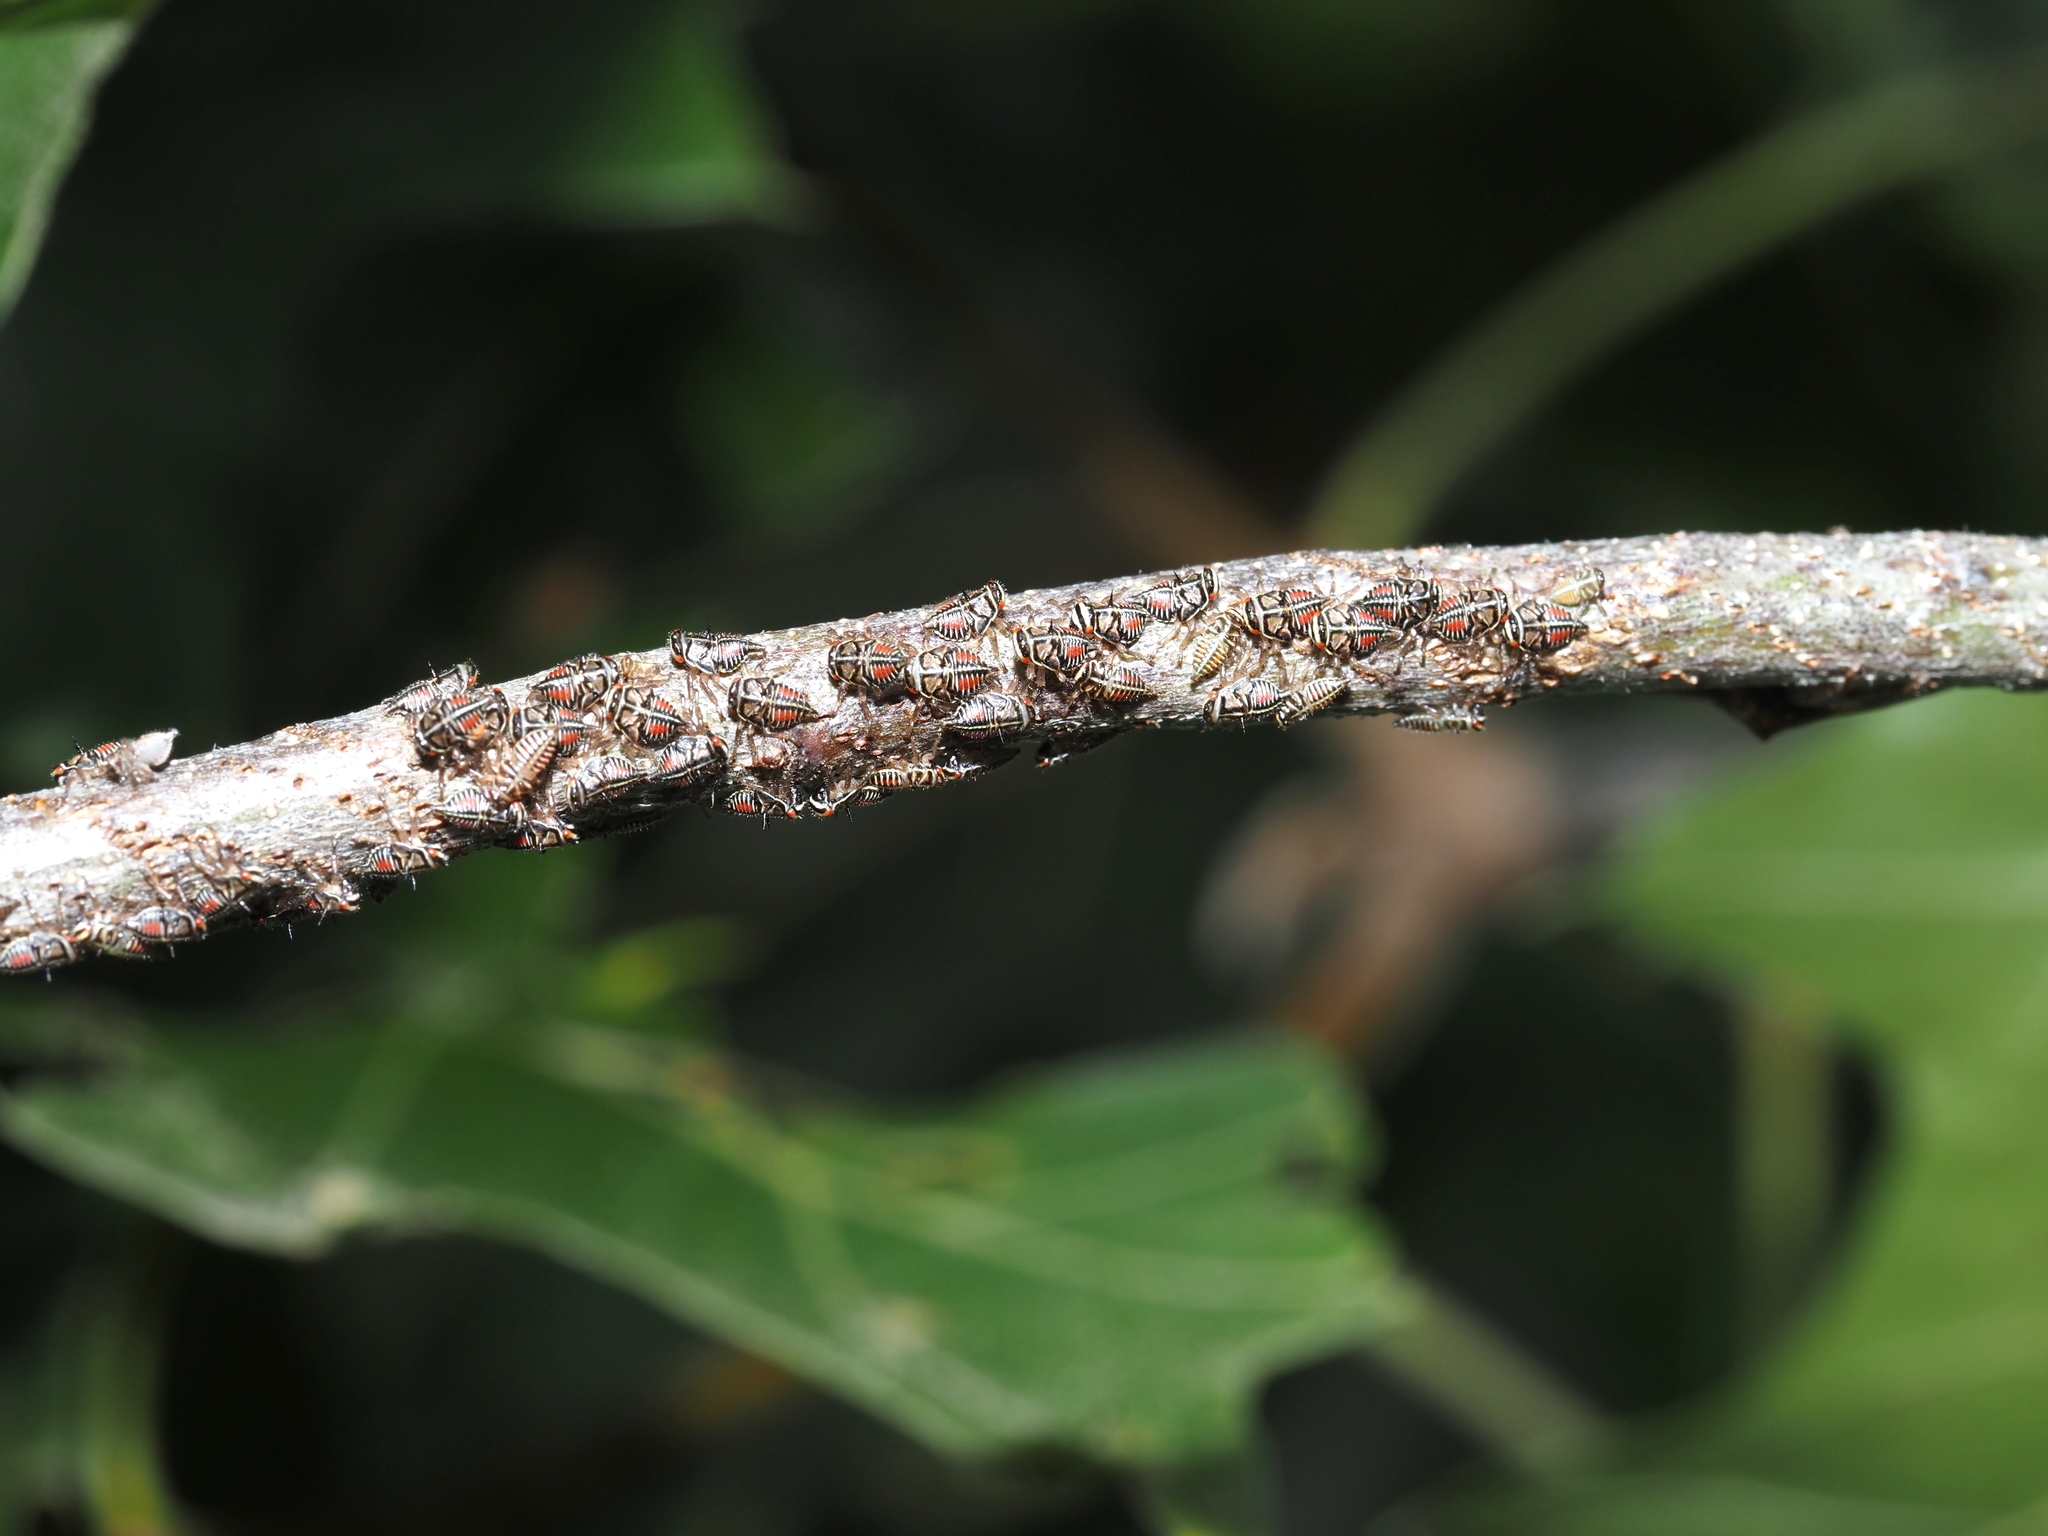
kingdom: Animalia
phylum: Arthropoda
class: Insecta
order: Hemiptera
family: Membracidae
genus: Platycotis
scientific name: Platycotis vittatus
